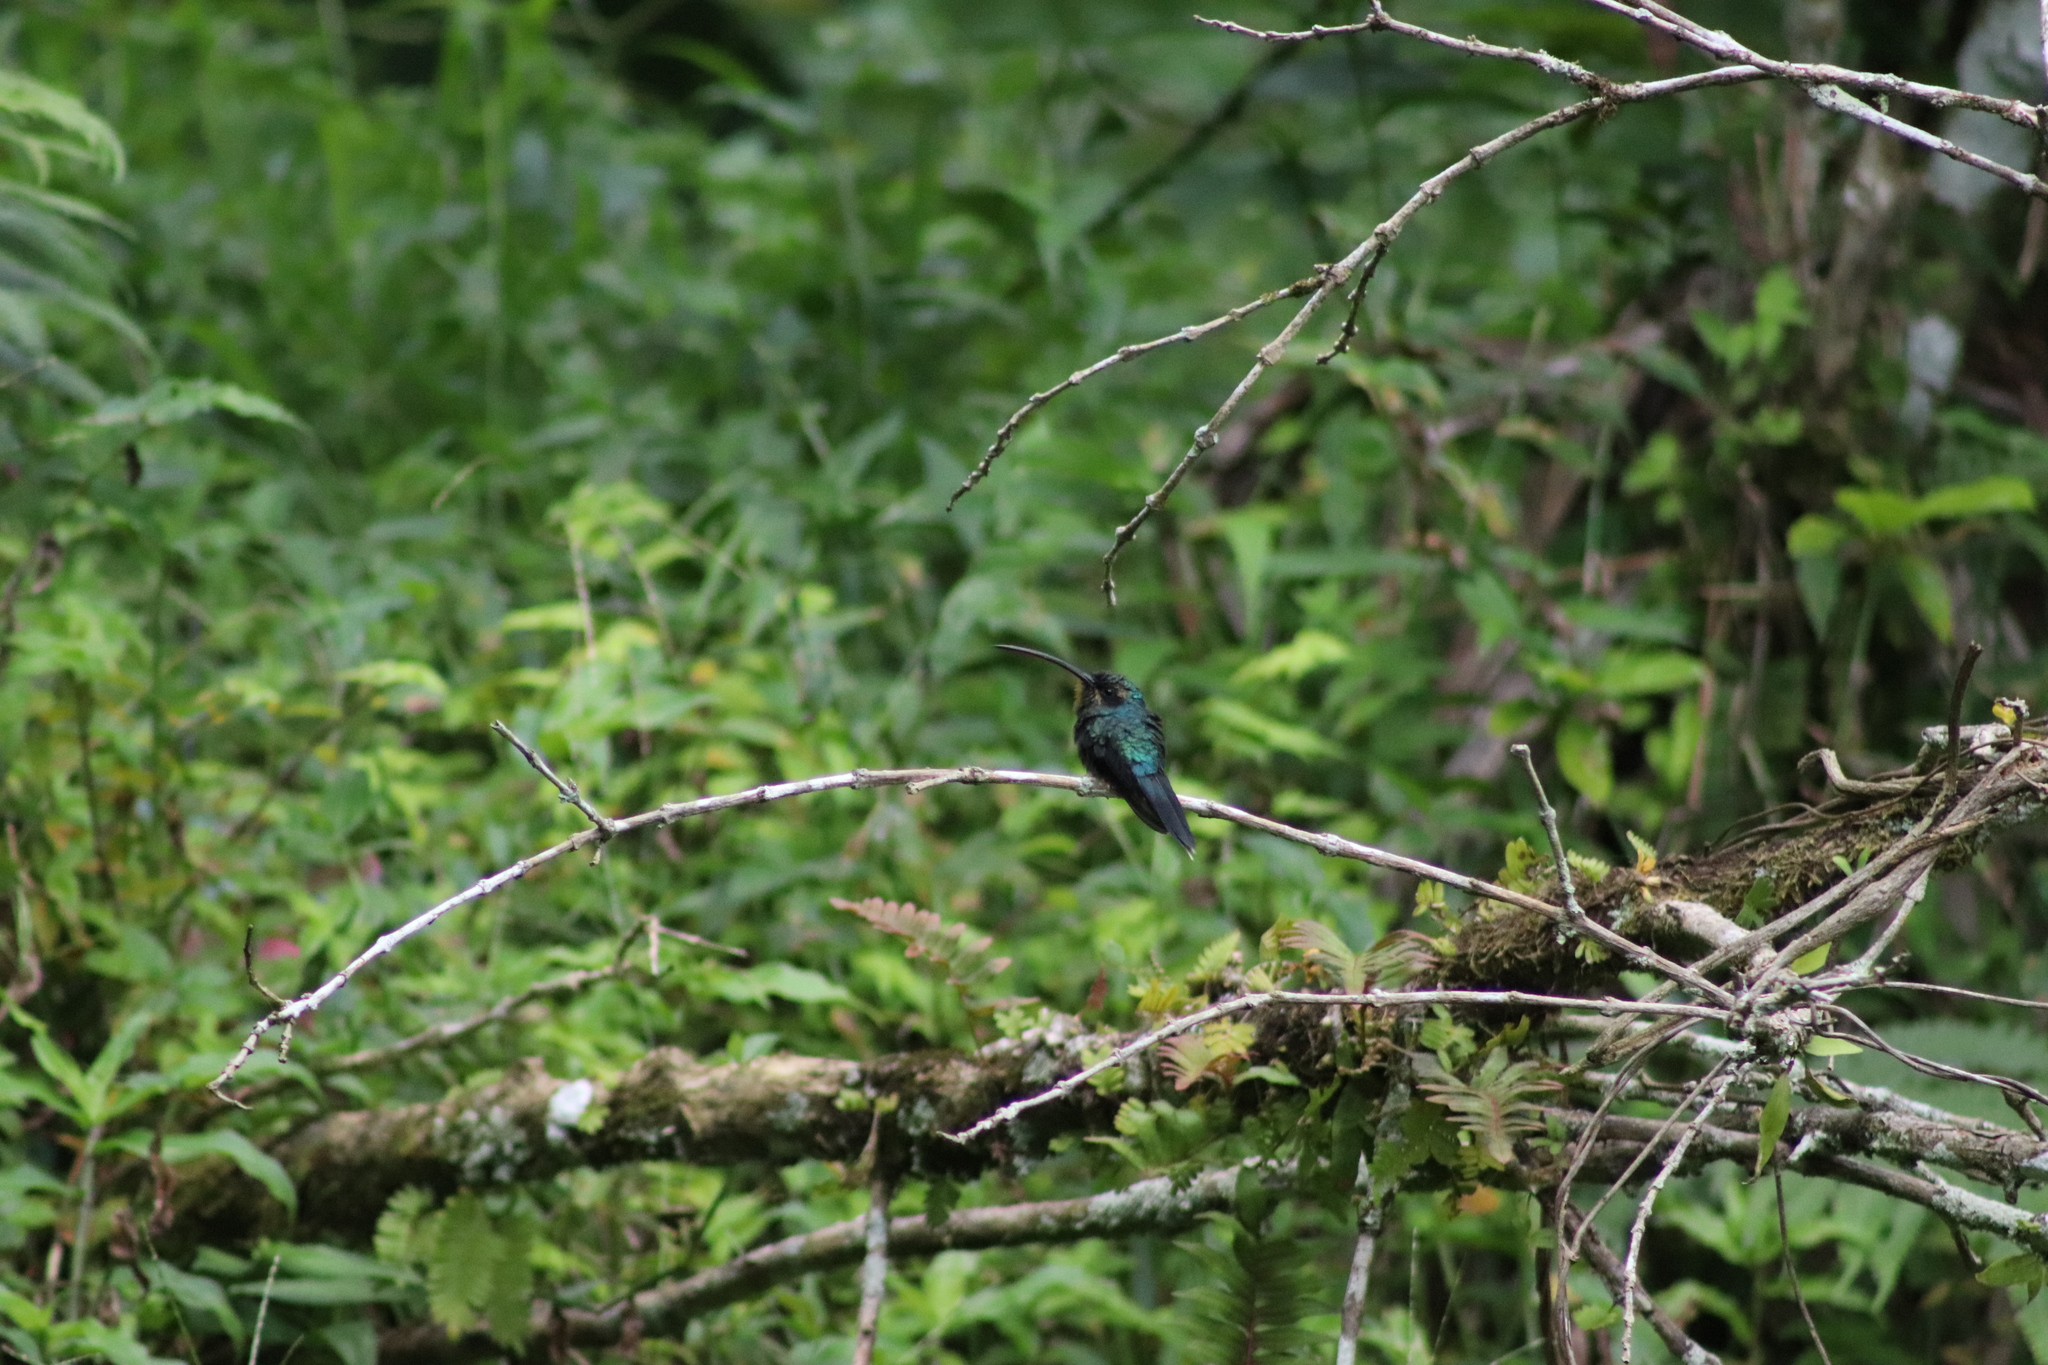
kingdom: Animalia
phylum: Chordata
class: Aves
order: Apodiformes
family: Trochilidae
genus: Phaethornis
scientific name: Phaethornis guy
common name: Green hermit
